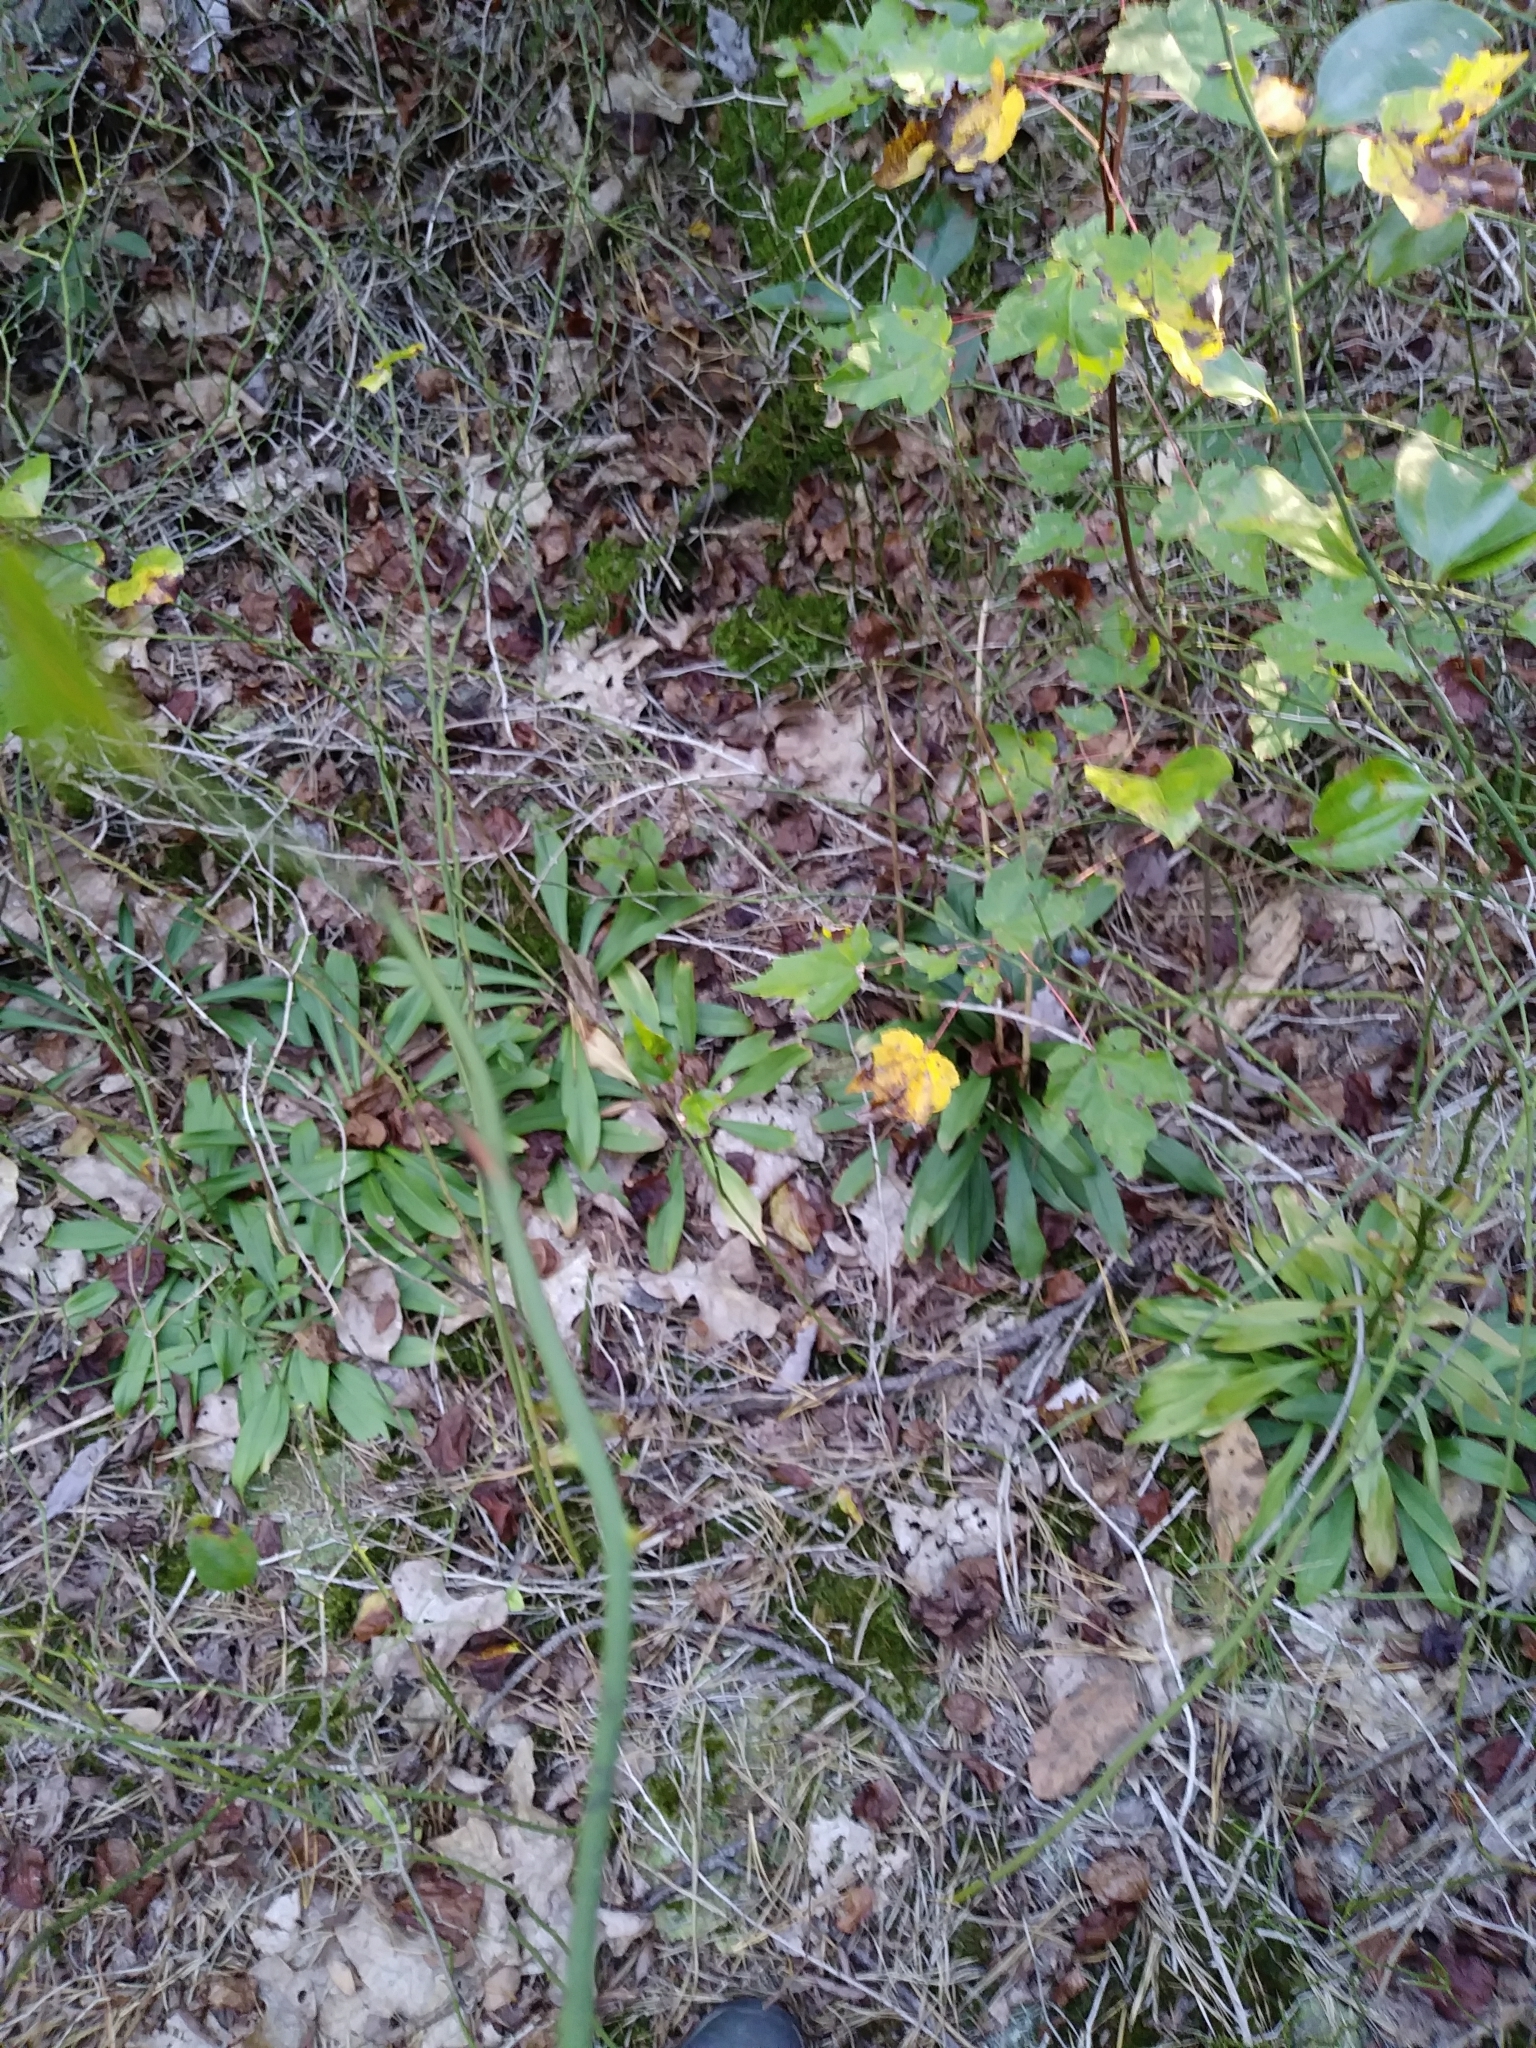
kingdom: Plantae
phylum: Tracheophyta
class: Liliopsida
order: Liliales
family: Melanthiaceae
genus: Chamaelirium
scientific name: Chamaelirium luteum
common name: Fairy-wand
